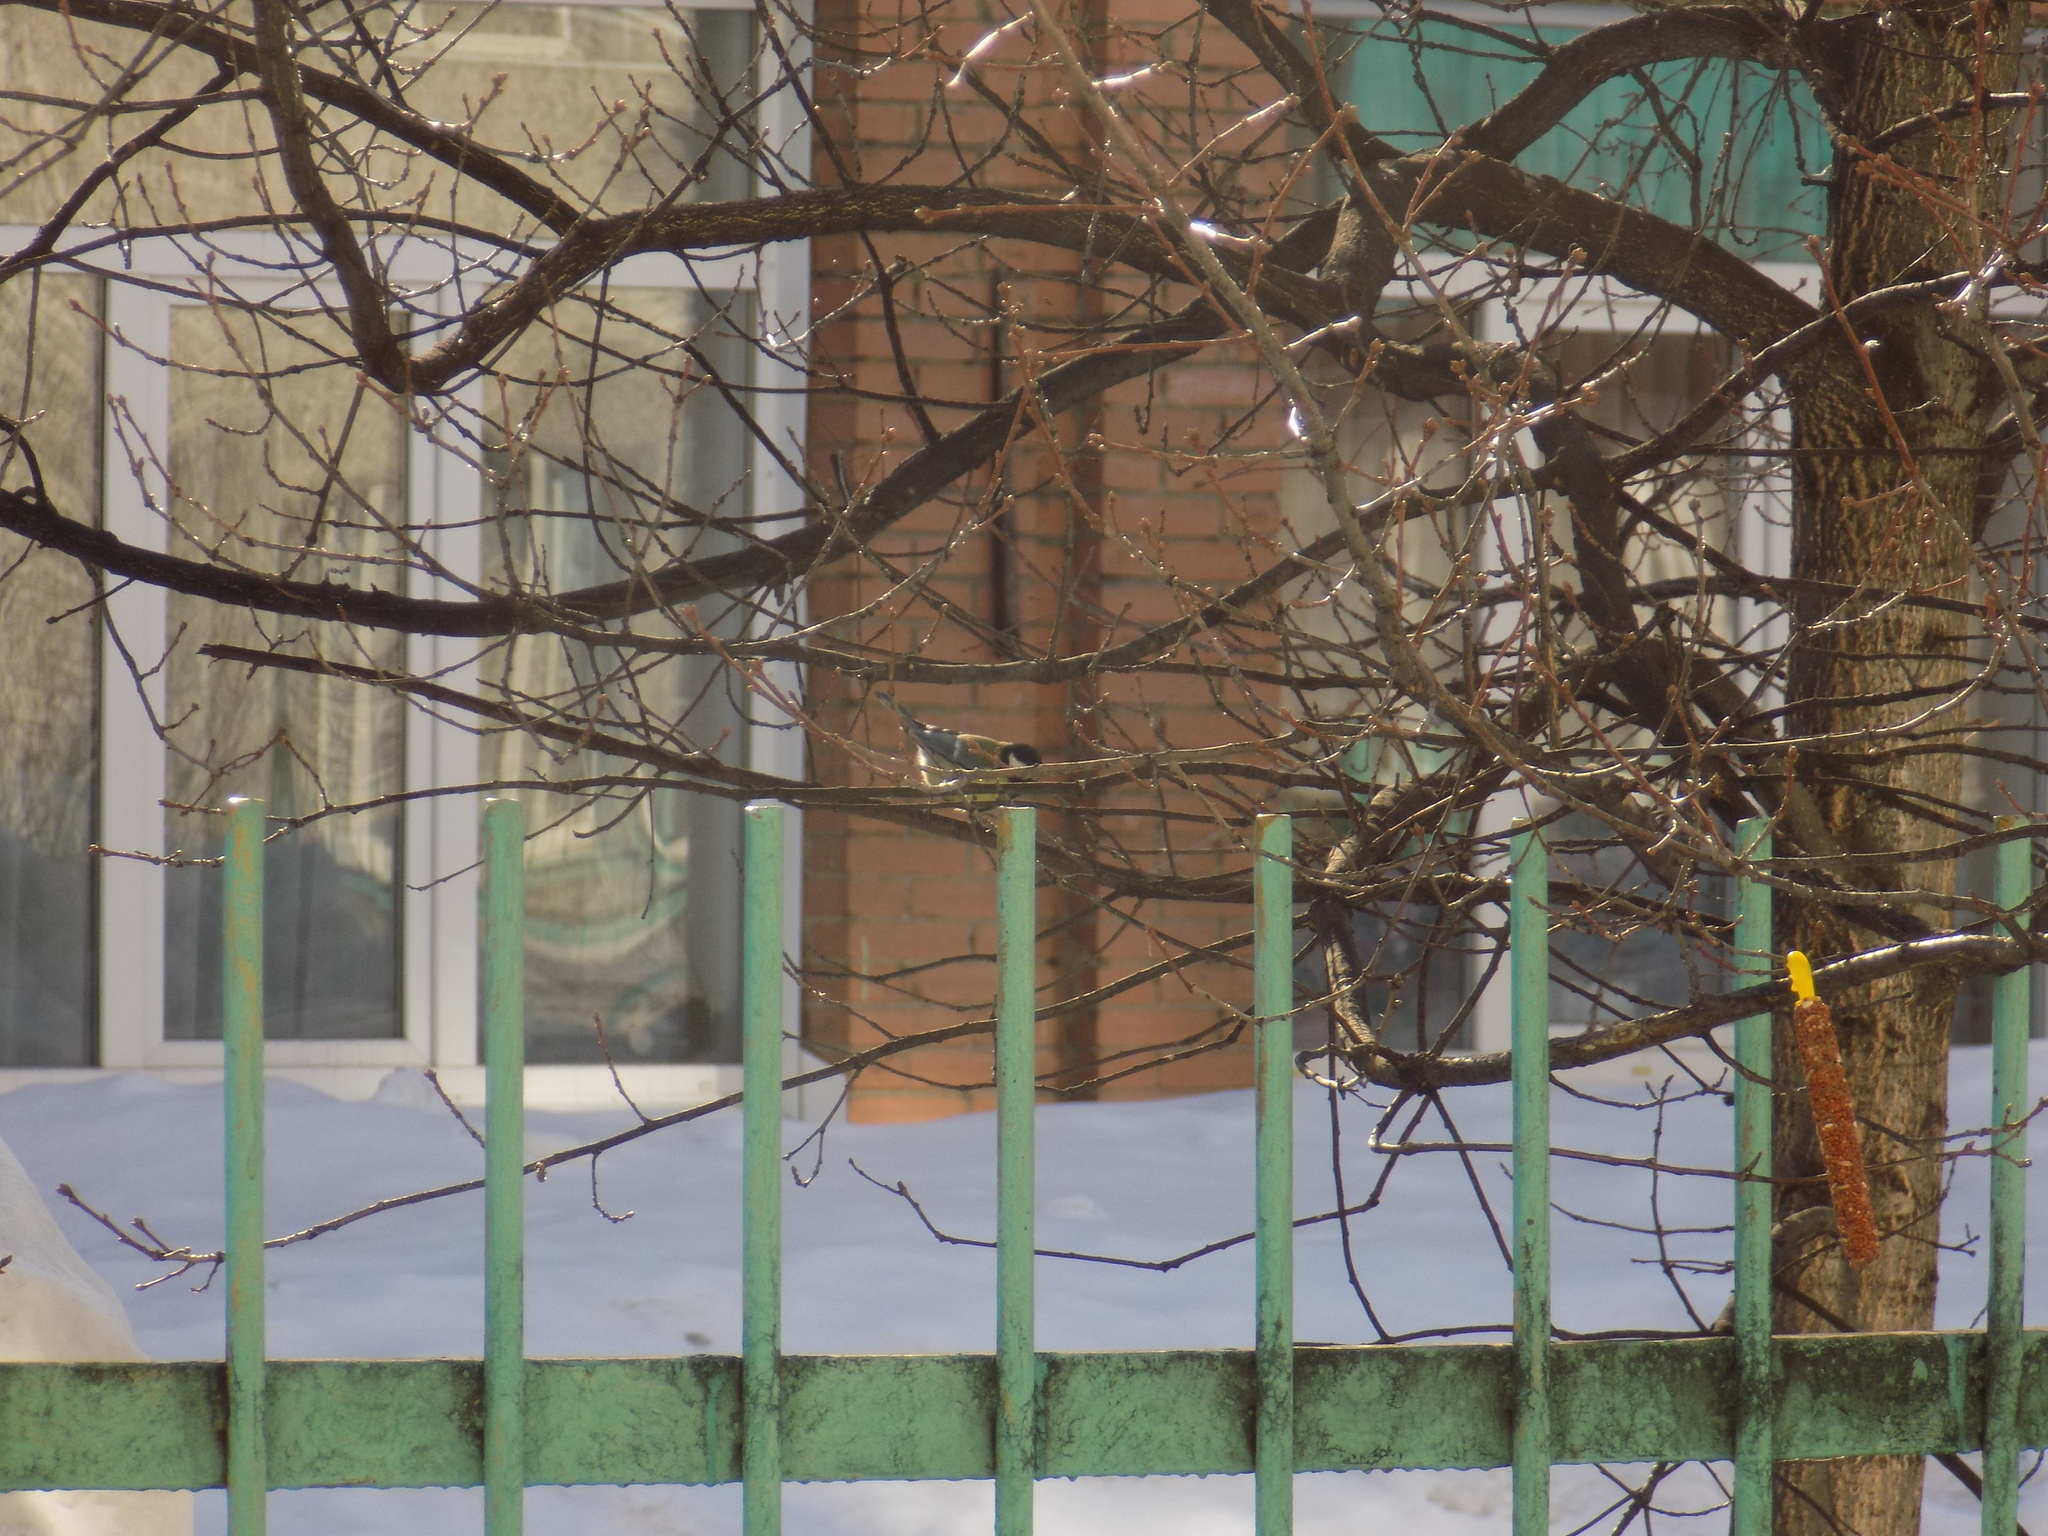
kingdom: Animalia
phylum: Chordata
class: Aves
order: Passeriformes
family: Paridae
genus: Parus
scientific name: Parus major
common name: Great tit
